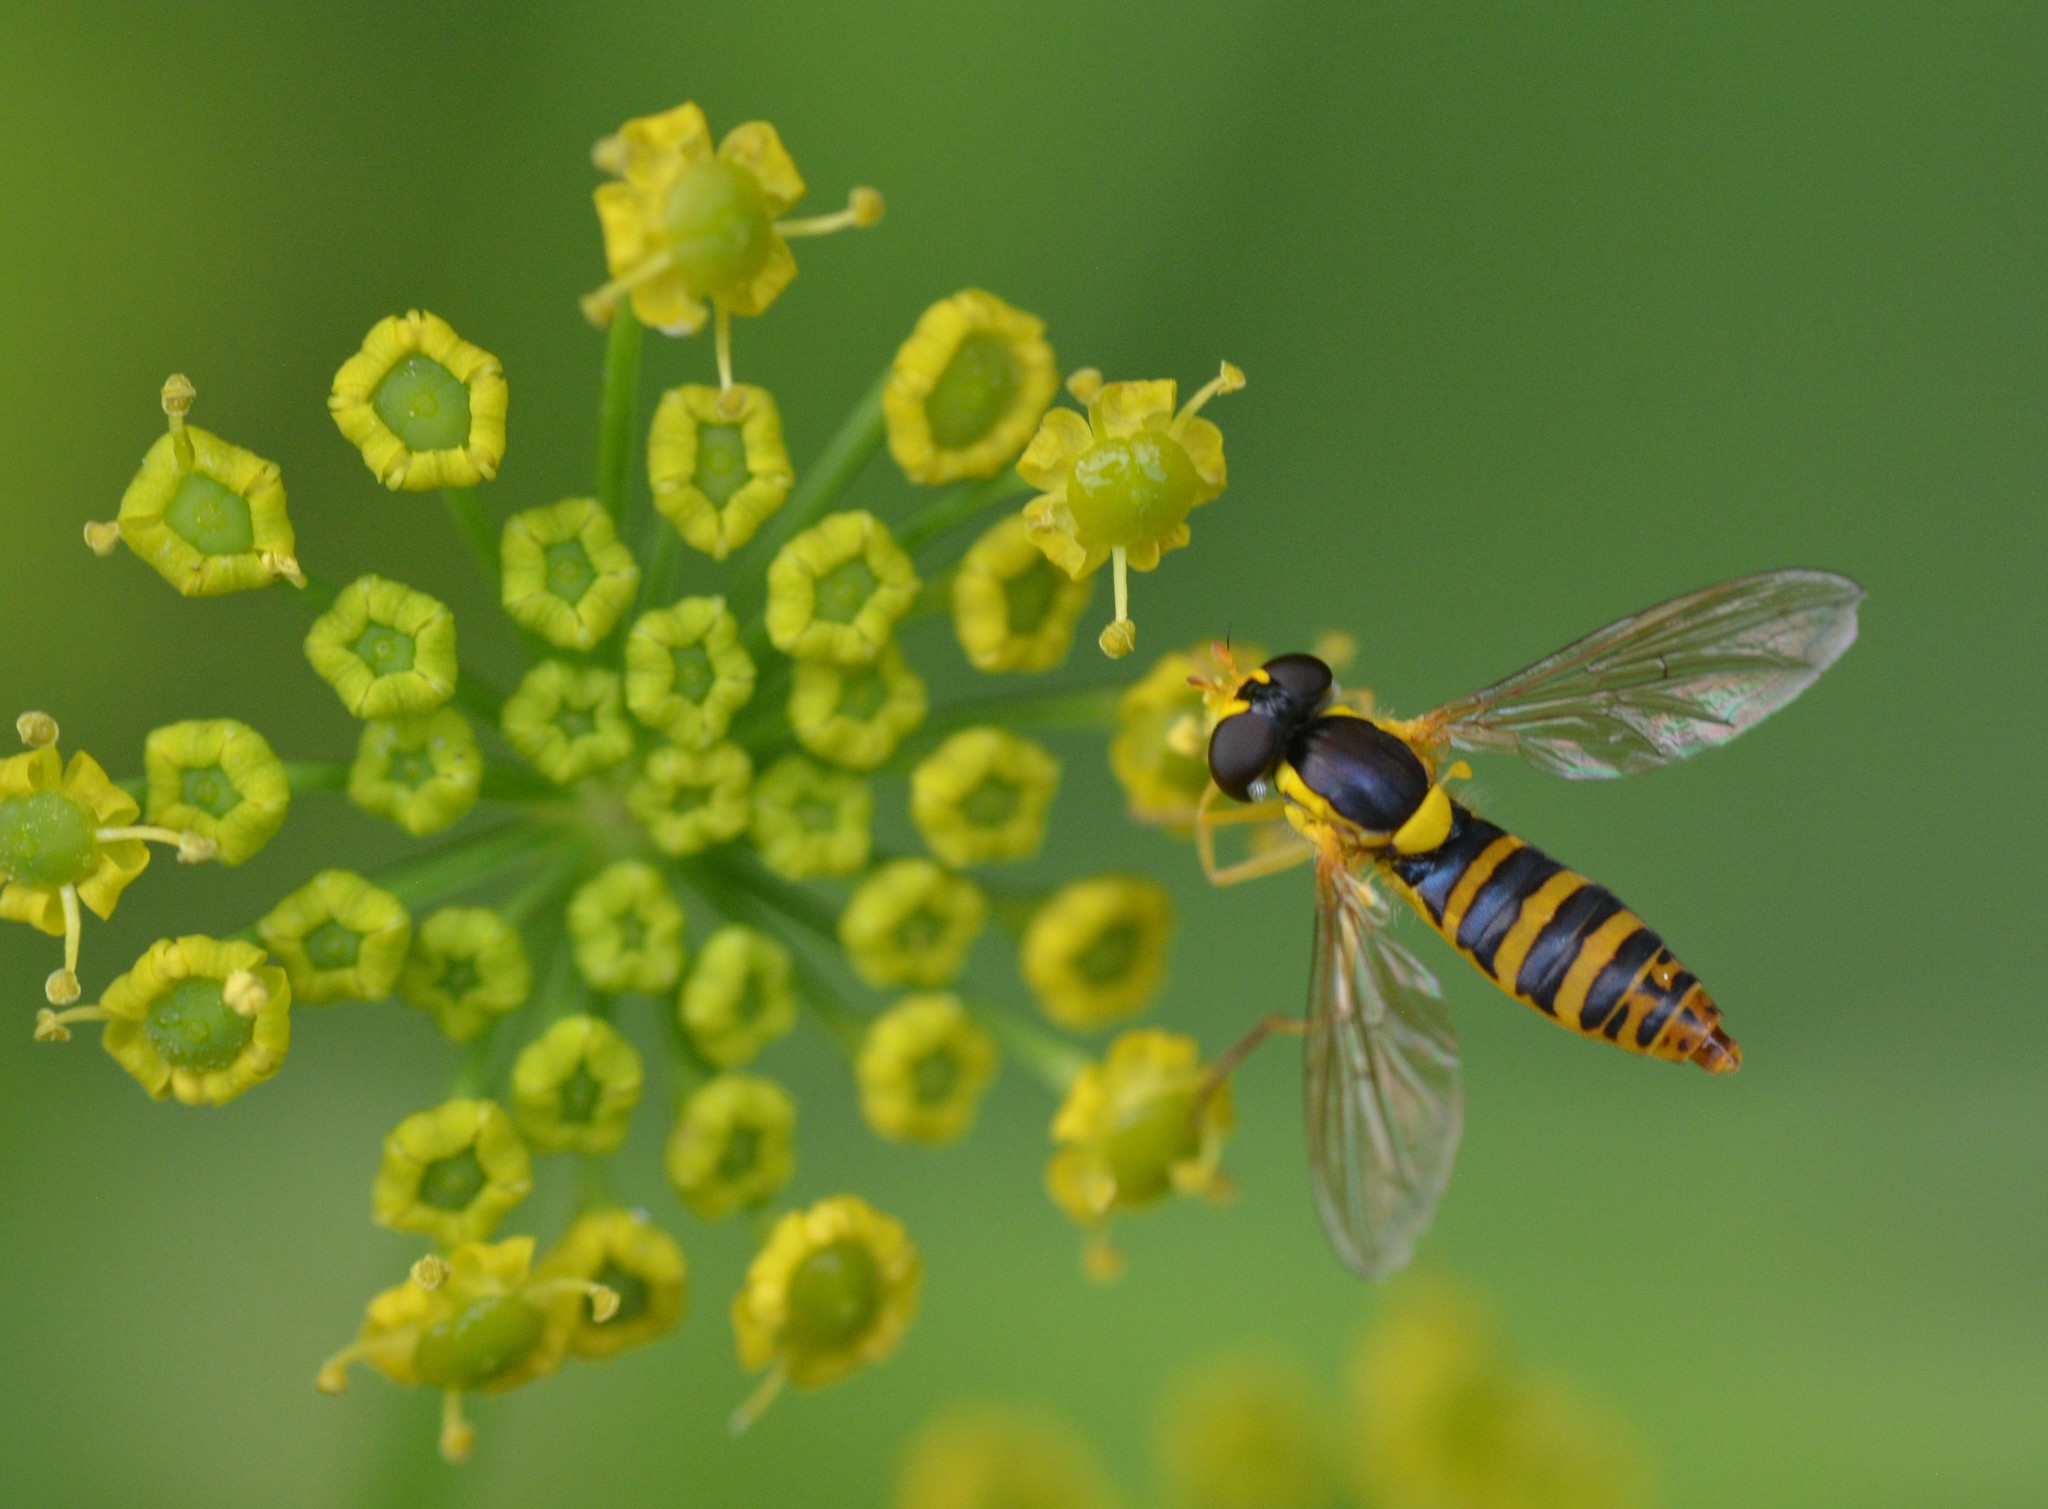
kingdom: Animalia
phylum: Arthropoda
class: Insecta
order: Diptera
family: Syrphidae
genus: Sphaerophoria
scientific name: Sphaerophoria
